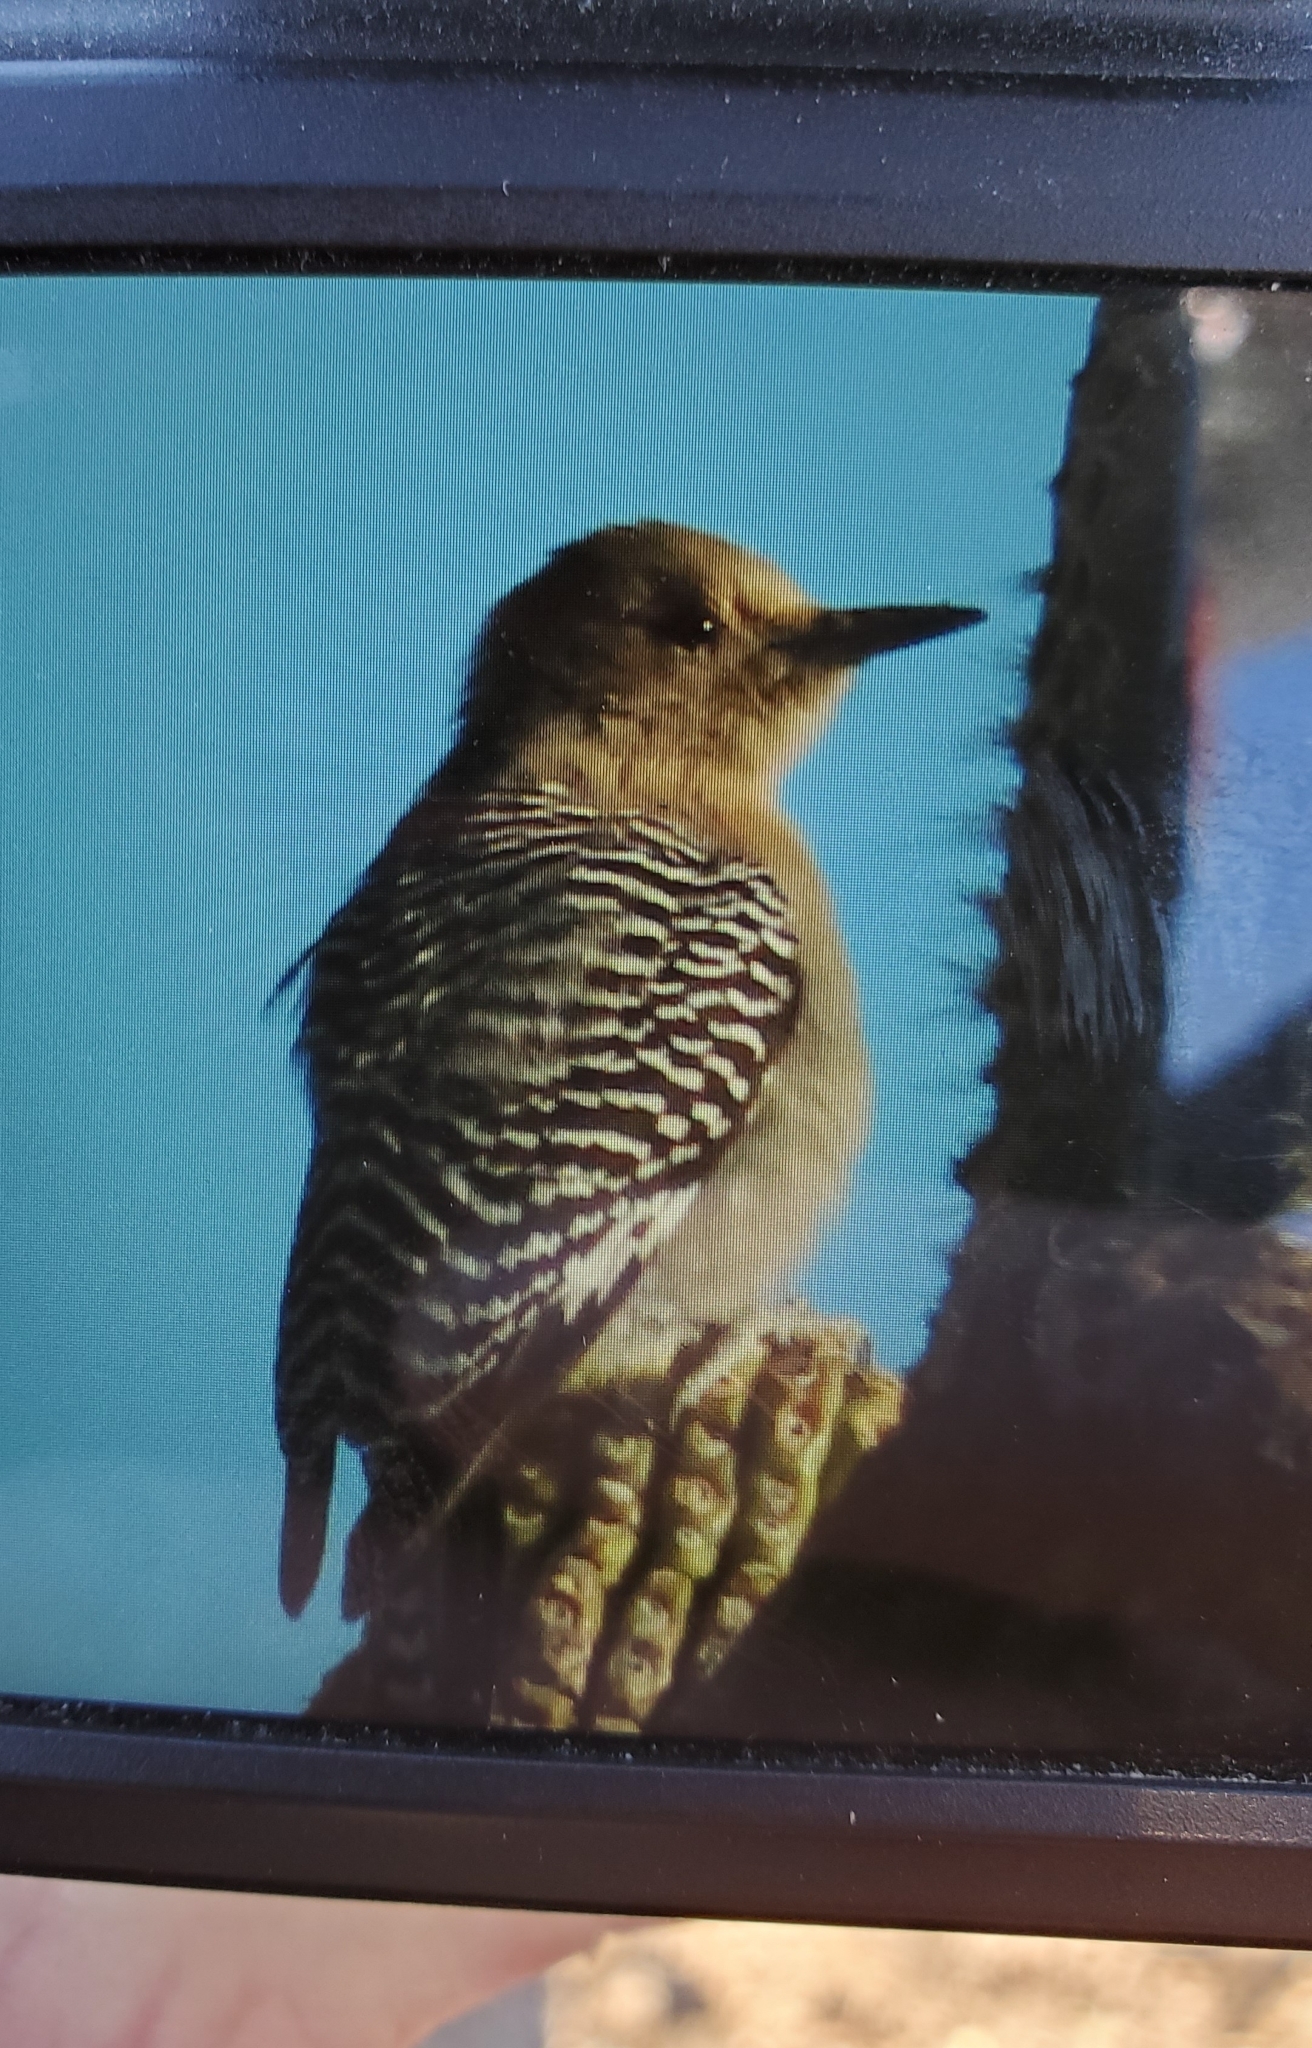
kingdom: Animalia
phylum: Chordata
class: Aves
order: Piciformes
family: Picidae
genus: Melanerpes
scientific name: Melanerpes uropygialis
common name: Gila woodpecker
